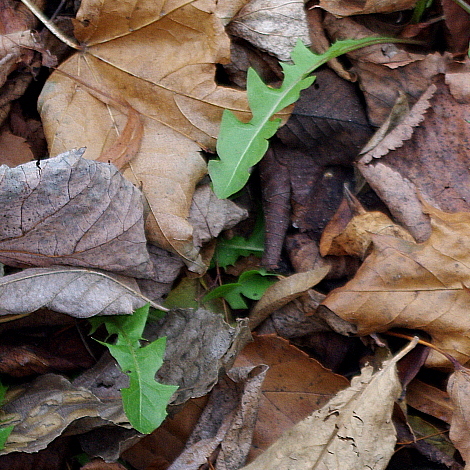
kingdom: Plantae
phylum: Tracheophyta
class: Magnoliopsida
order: Asterales
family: Asteraceae
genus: Taraxacum
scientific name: Taraxacum officinale
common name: Common dandelion
